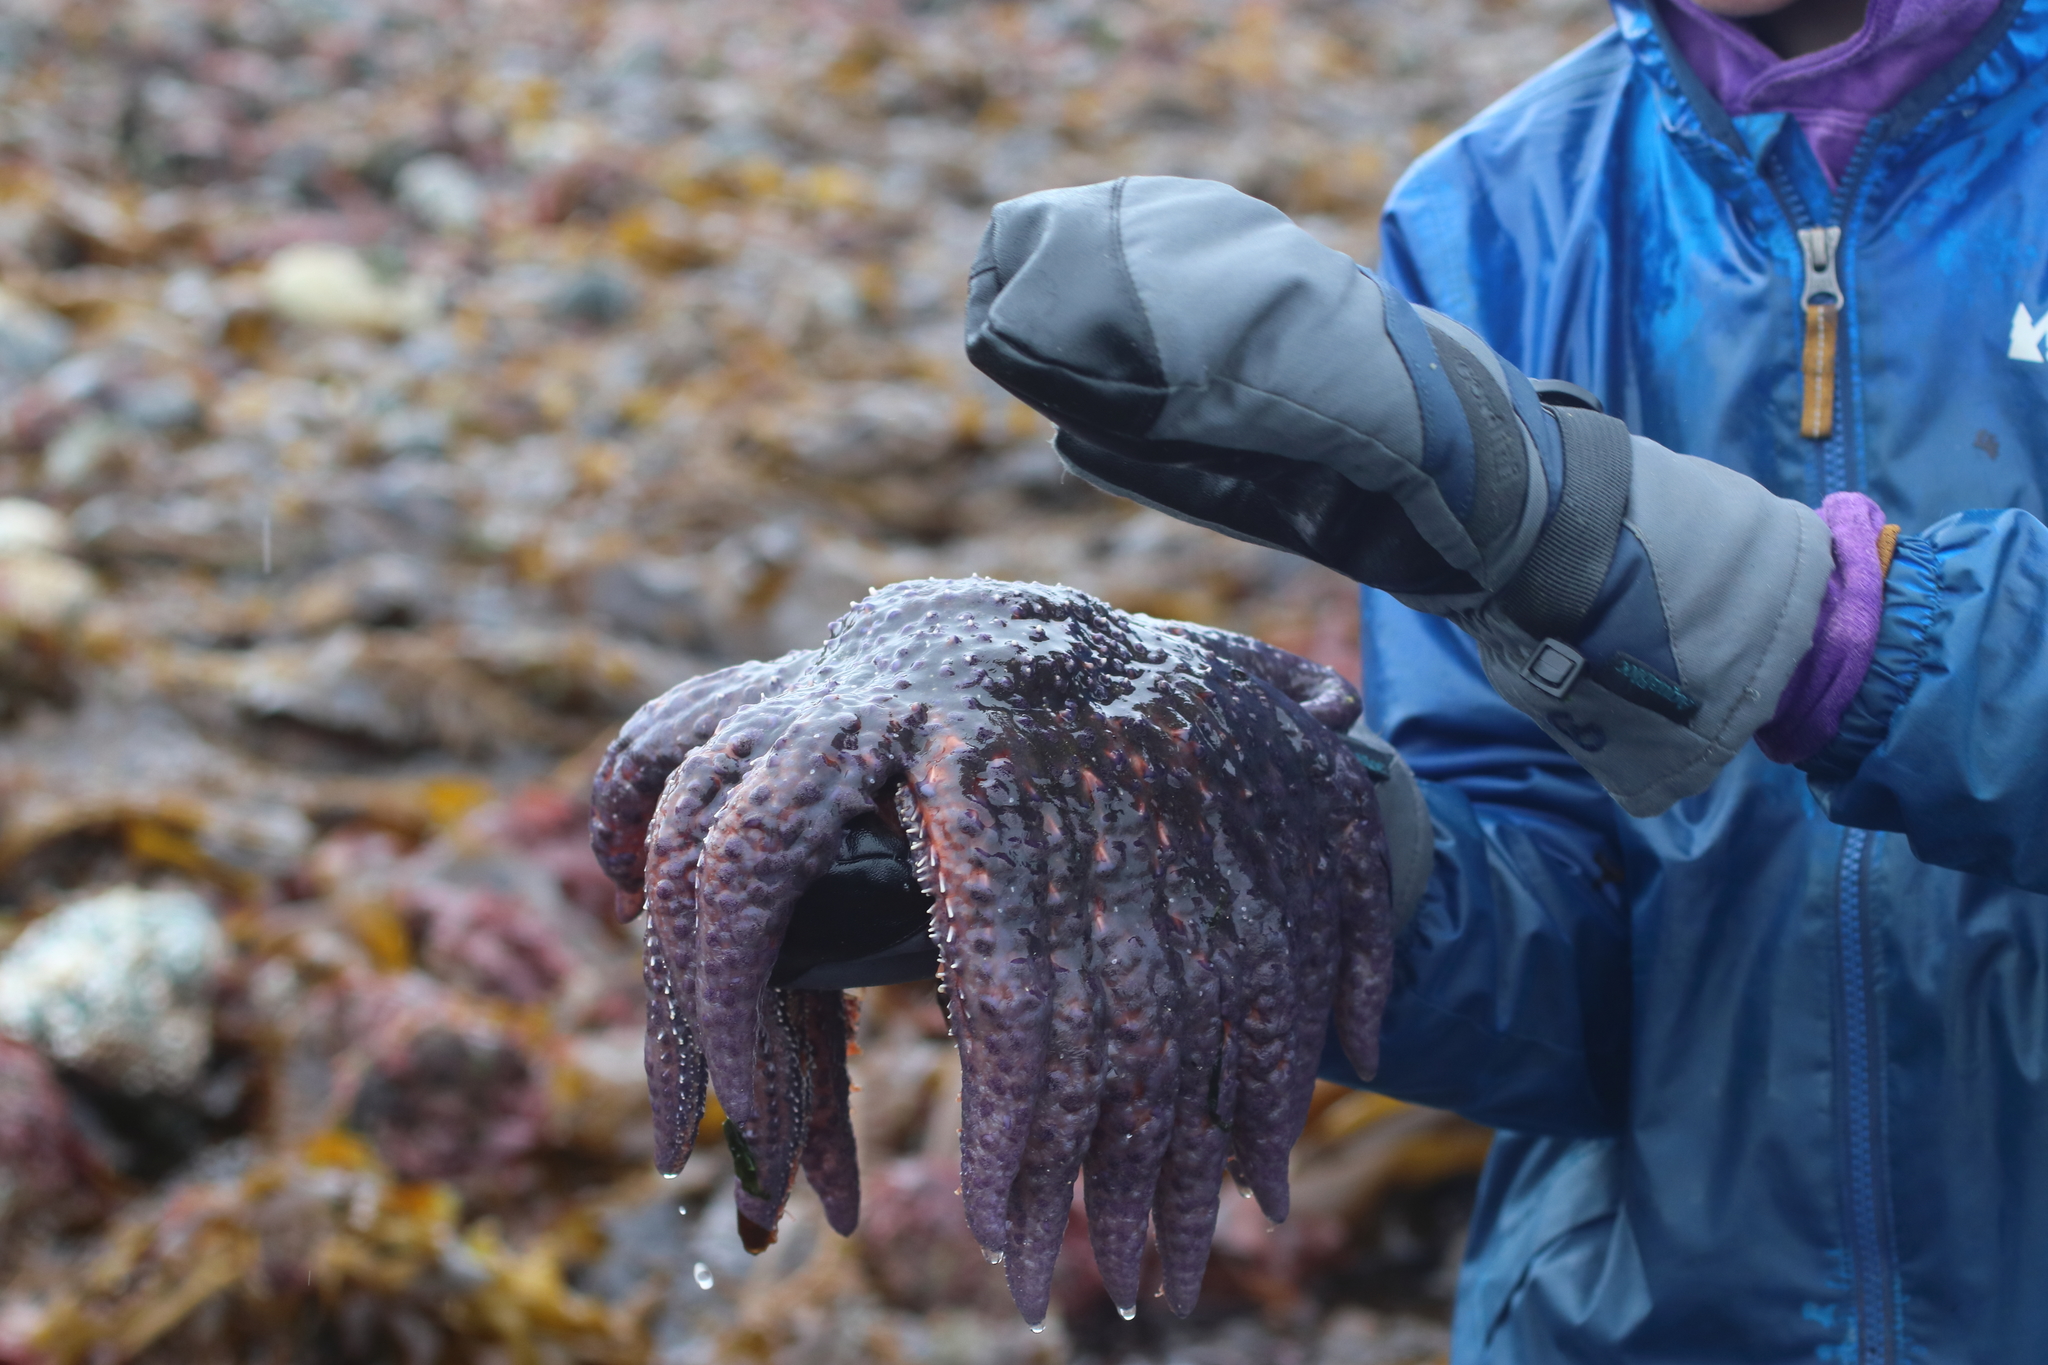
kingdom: Animalia
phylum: Echinodermata
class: Asteroidea
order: Forcipulatida
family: Asteriidae
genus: Pycnopodia
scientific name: Pycnopodia helianthoides
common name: Rag mop
